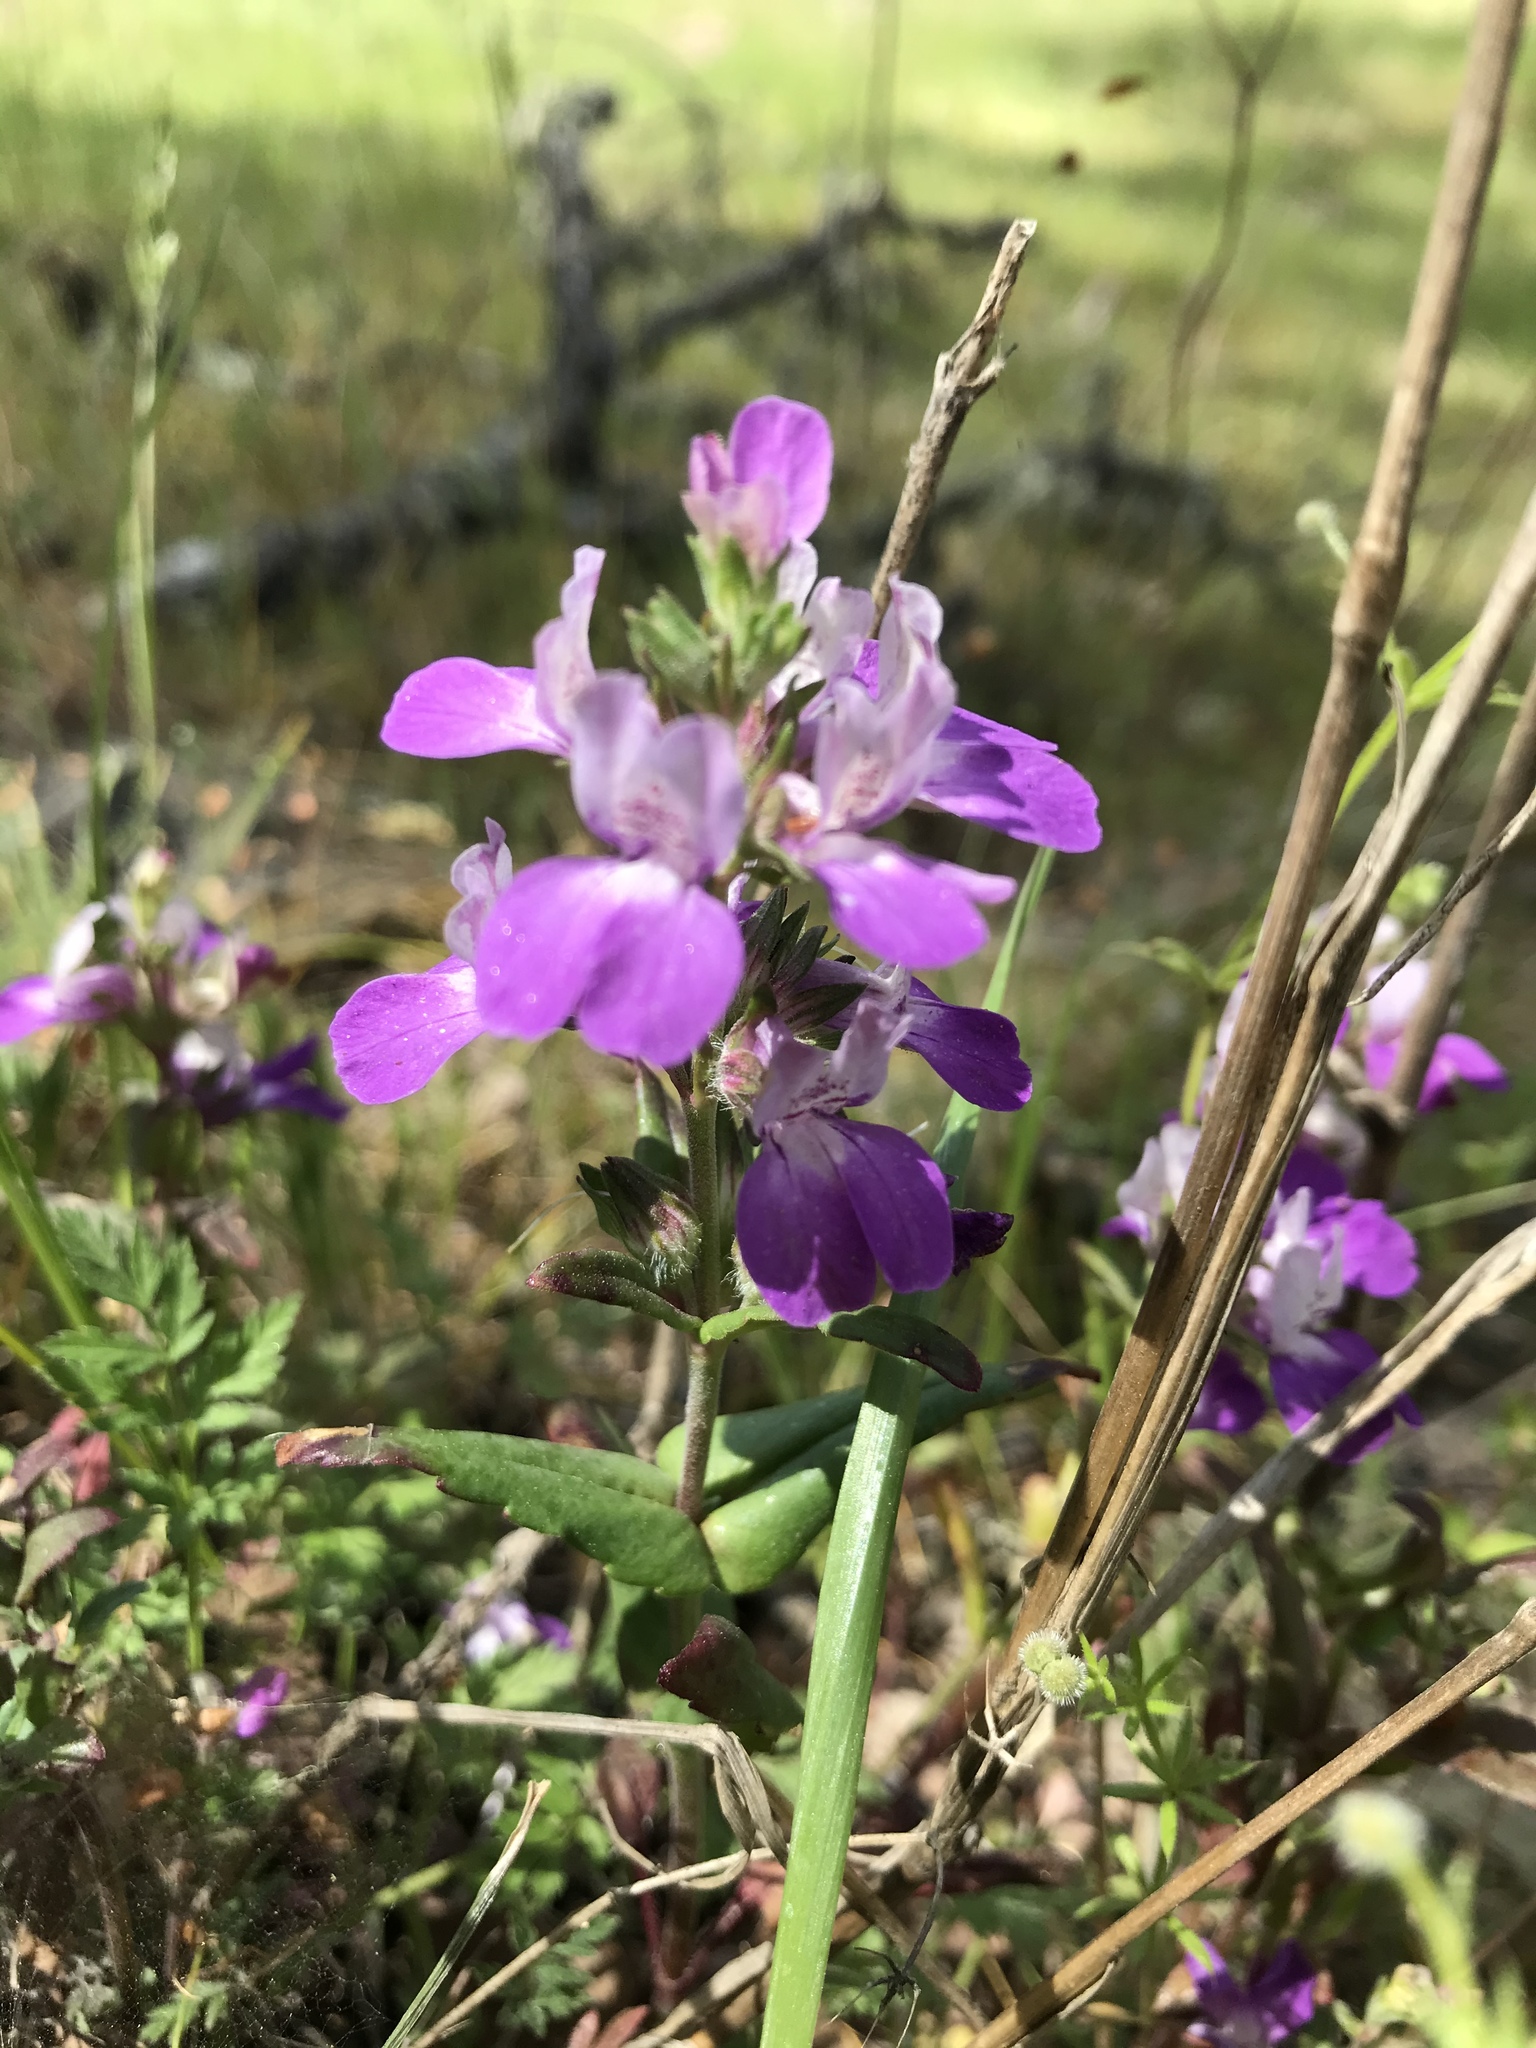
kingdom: Plantae
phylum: Tracheophyta
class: Magnoliopsida
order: Lamiales
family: Plantaginaceae
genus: Collinsia
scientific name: Collinsia heterophylla
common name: Chinese-houses
